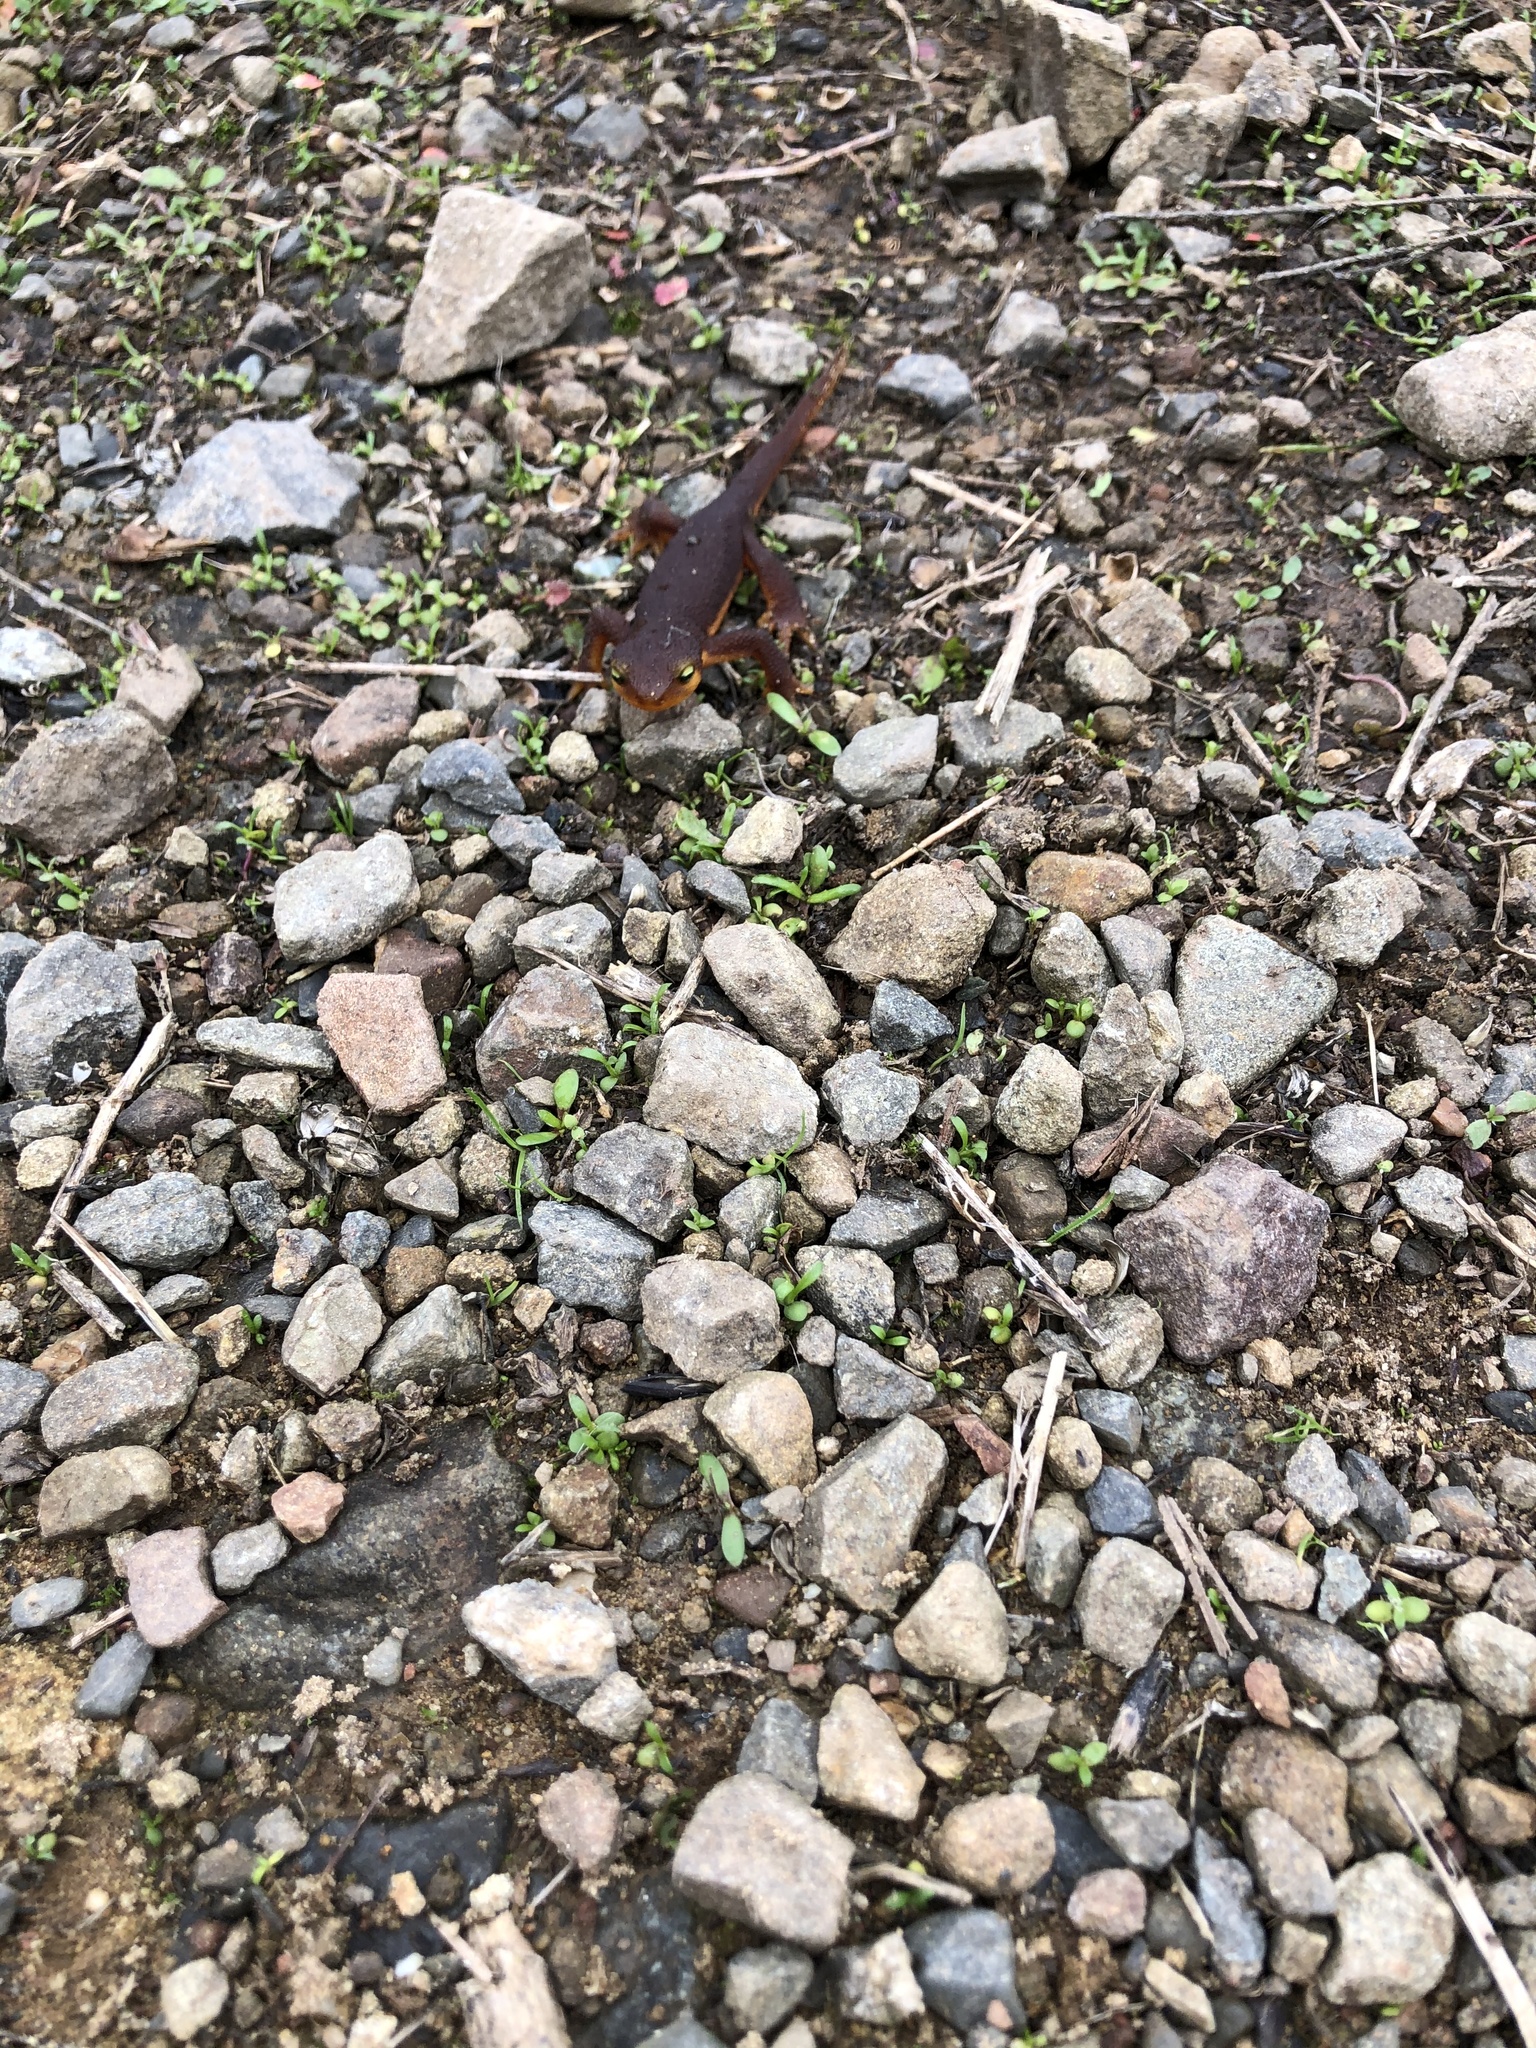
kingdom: Animalia
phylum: Chordata
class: Amphibia
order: Caudata
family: Salamandridae
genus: Taricha
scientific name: Taricha torosa
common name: California newt
